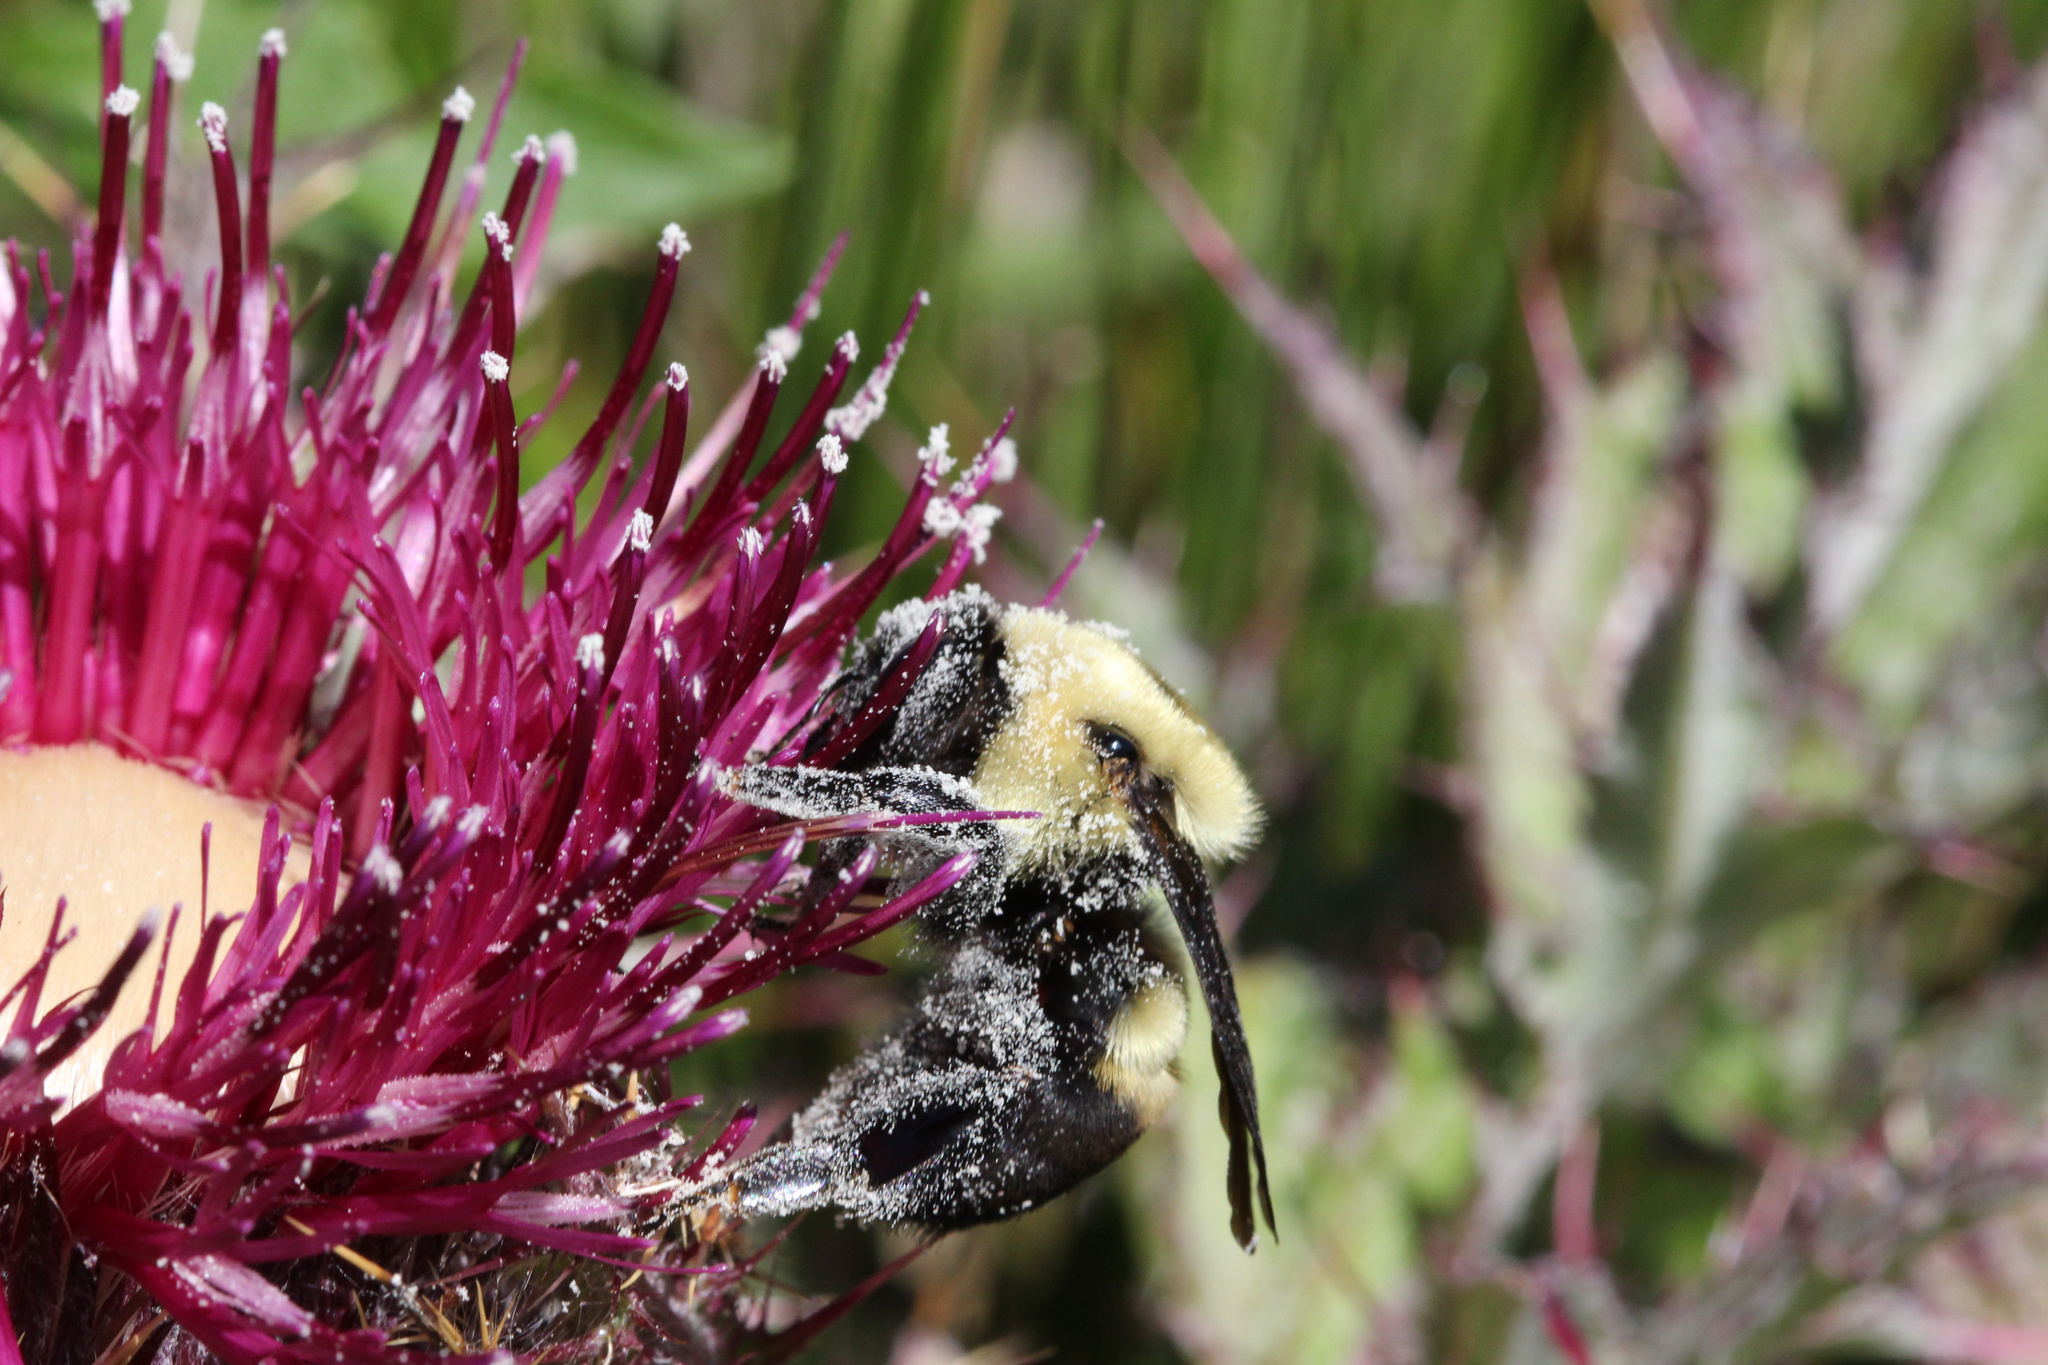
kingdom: Animalia
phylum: Arthropoda
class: Insecta
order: Hymenoptera
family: Apidae
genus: Bombus
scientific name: Bombus griseocollis
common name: Brown-belted bumble bee
